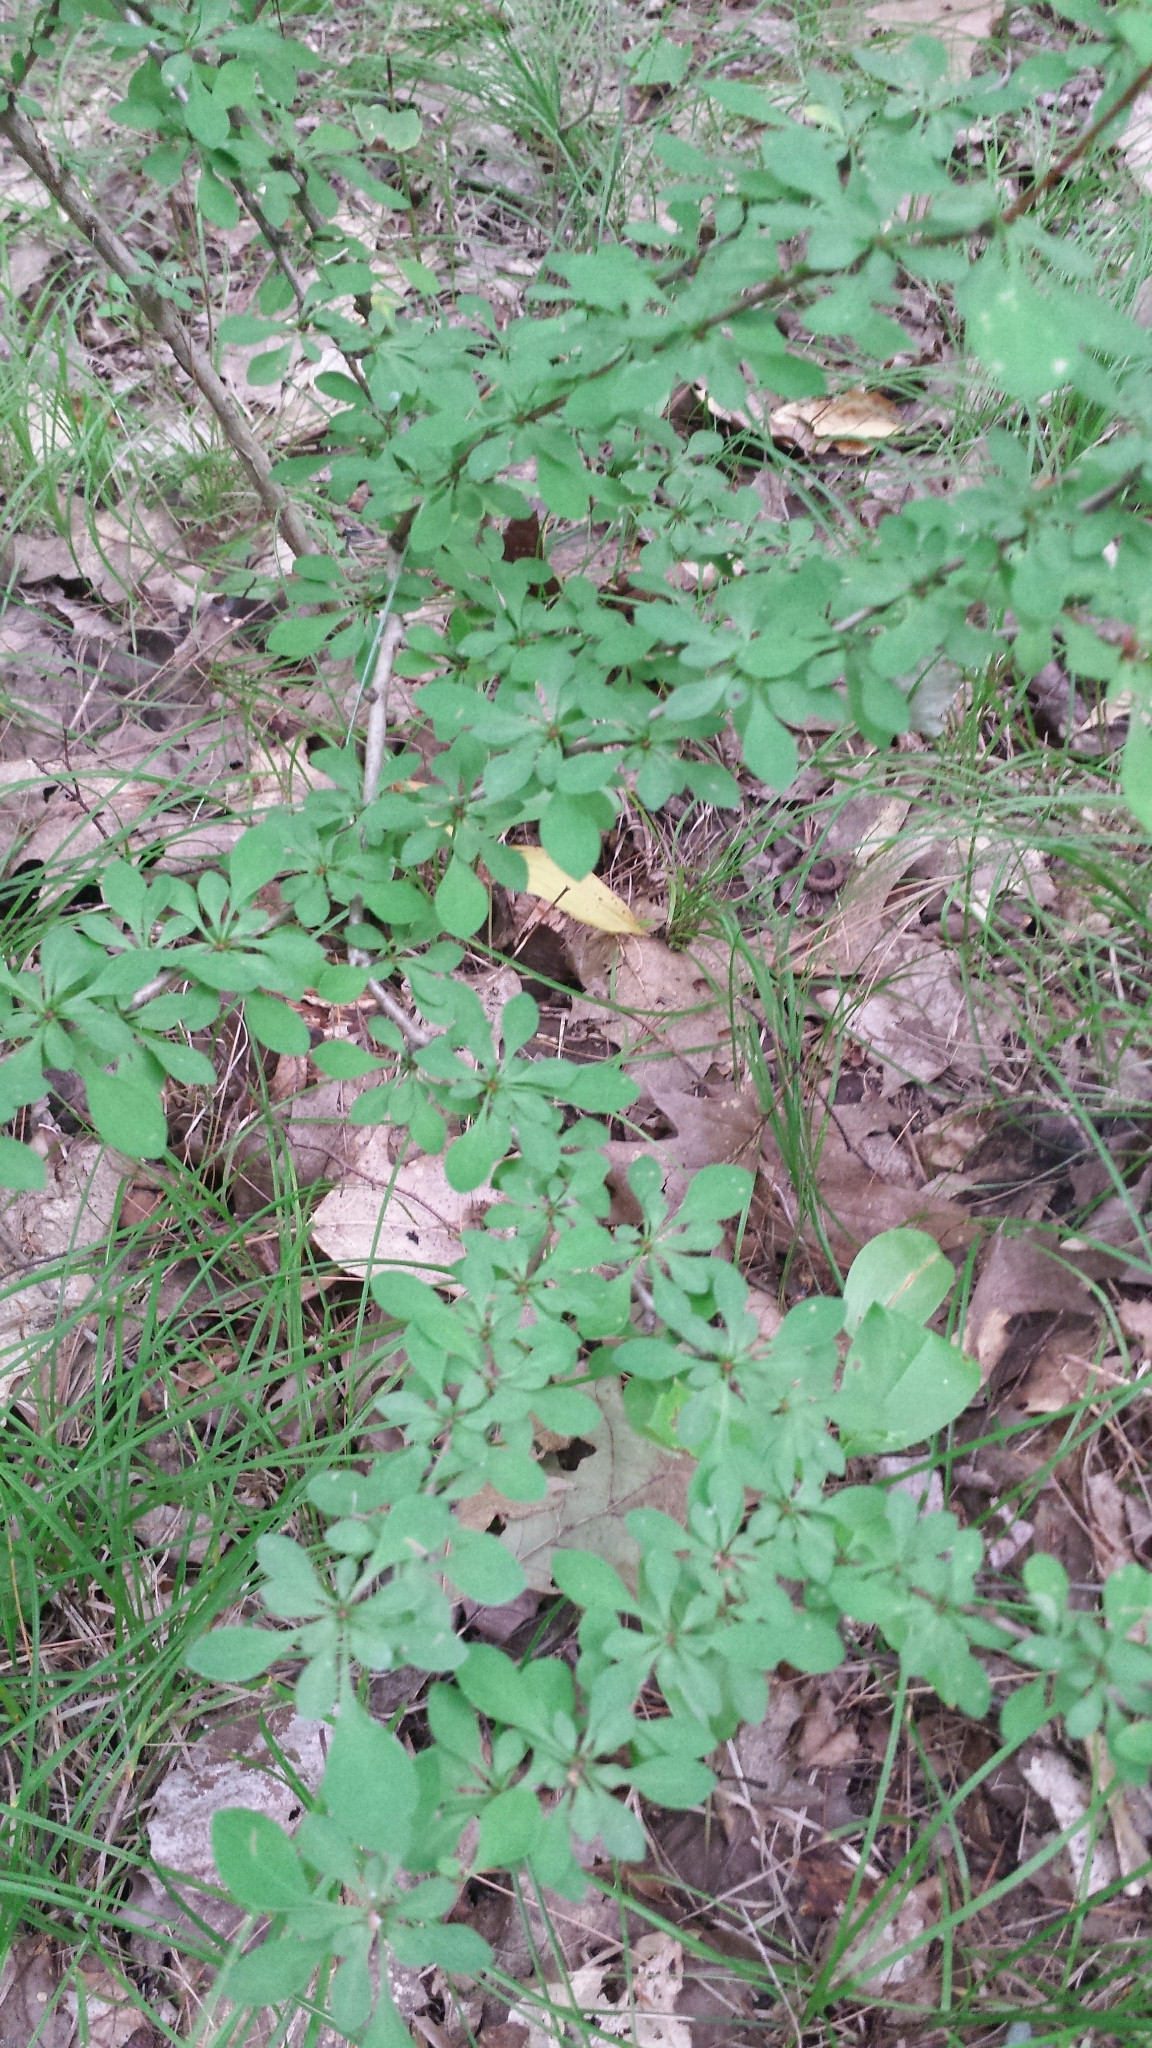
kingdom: Plantae
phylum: Tracheophyta
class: Magnoliopsida
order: Ranunculales
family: Berberidaceae
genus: Berberis
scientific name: Berberis thunbergii
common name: Japanese barberry
